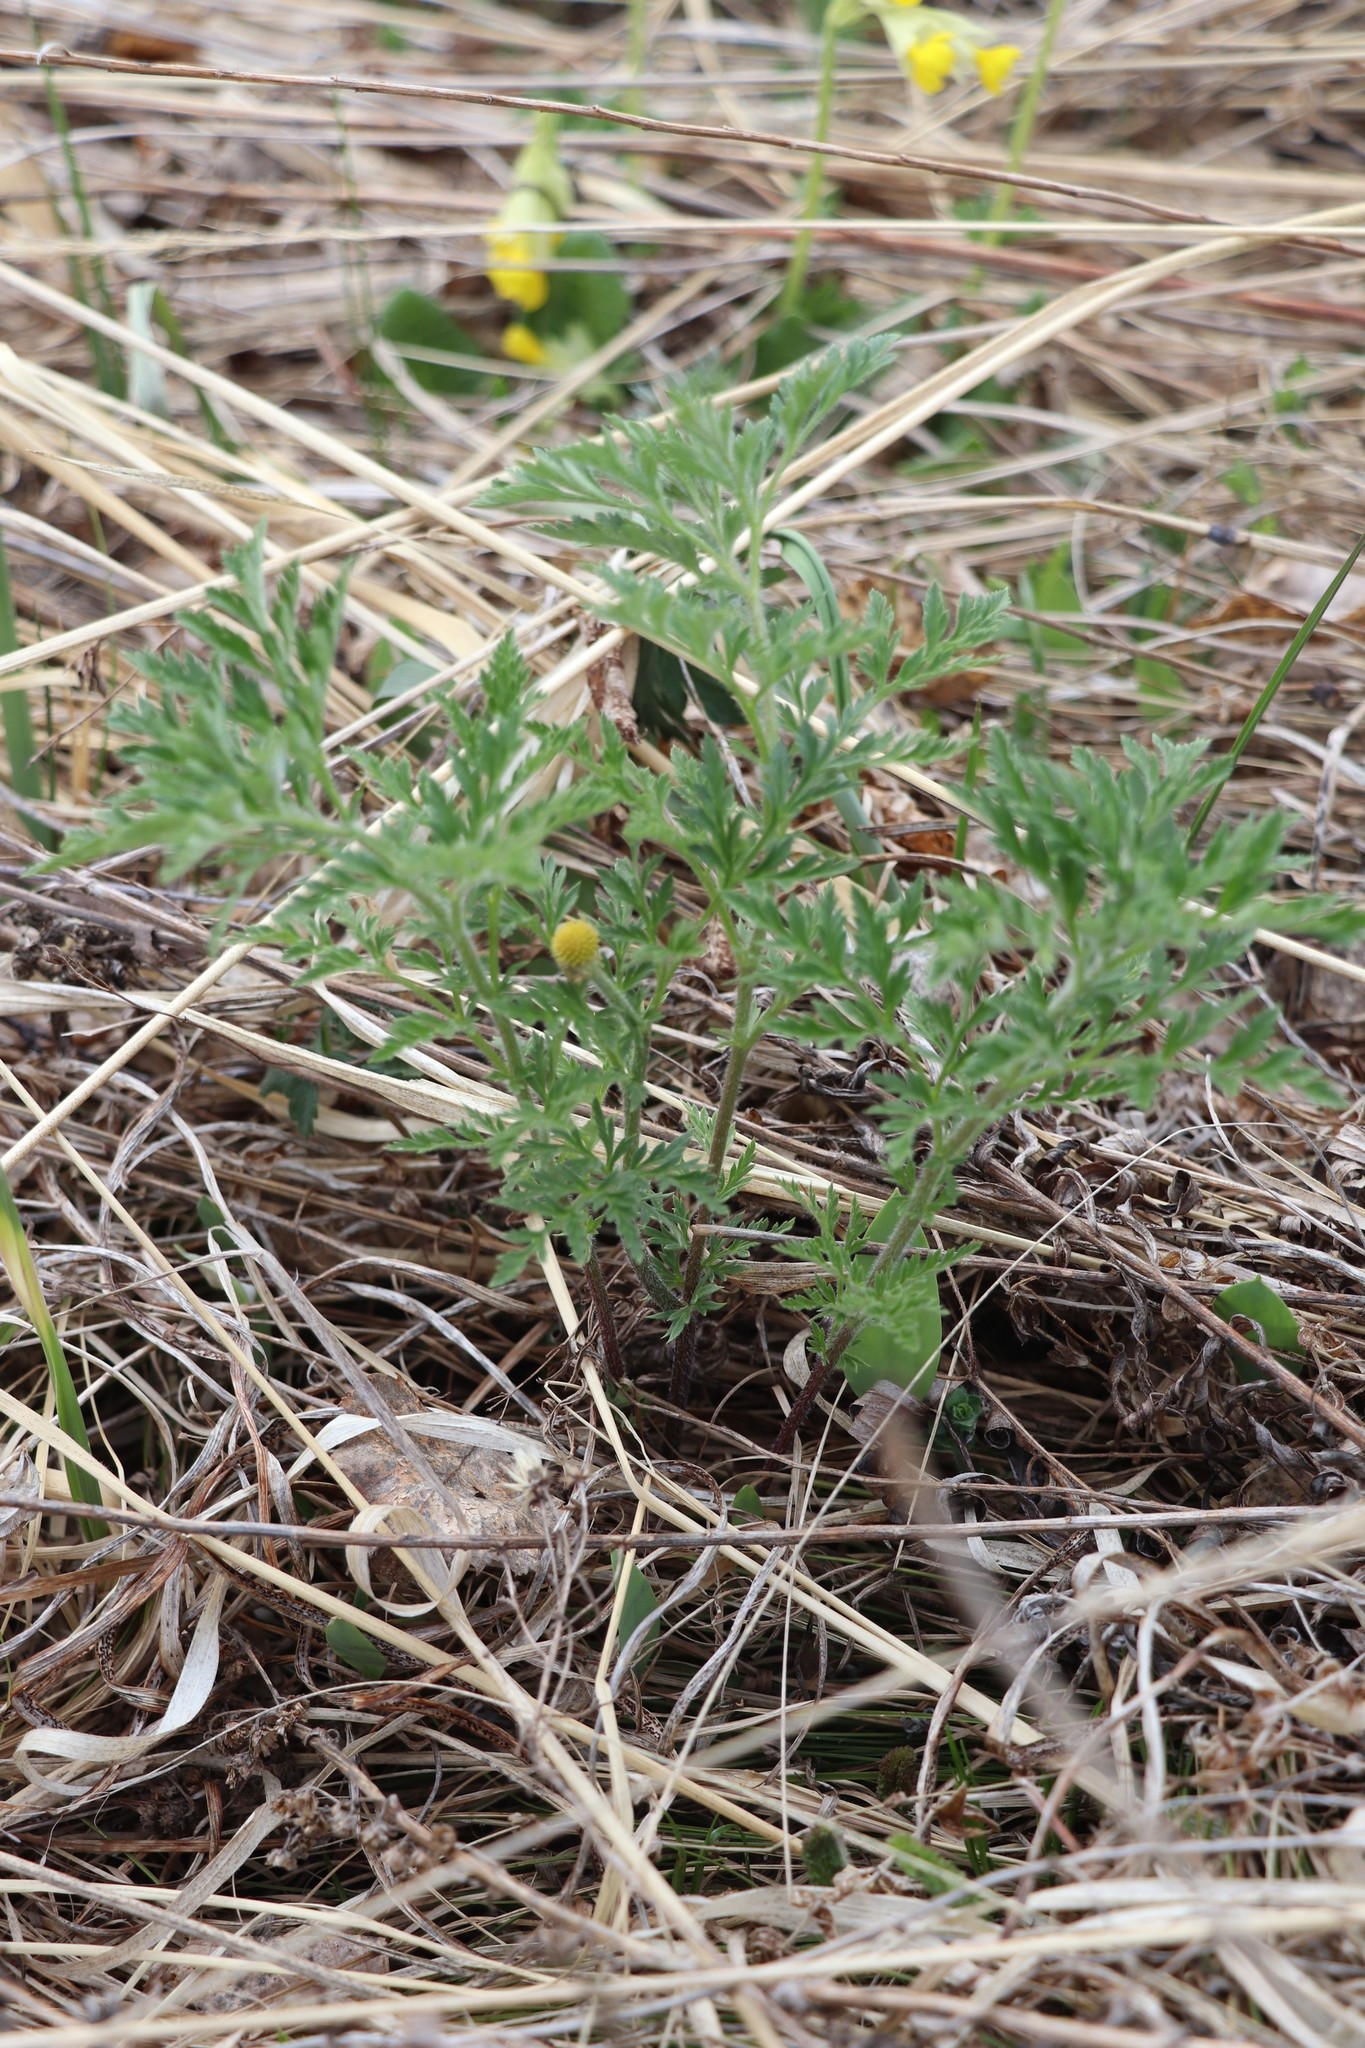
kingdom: Plantae
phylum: Tracheophyta
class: Magnoliopsida
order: Ranunculales
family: Ranunculaceae
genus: Adonis
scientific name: Adonis villosa
